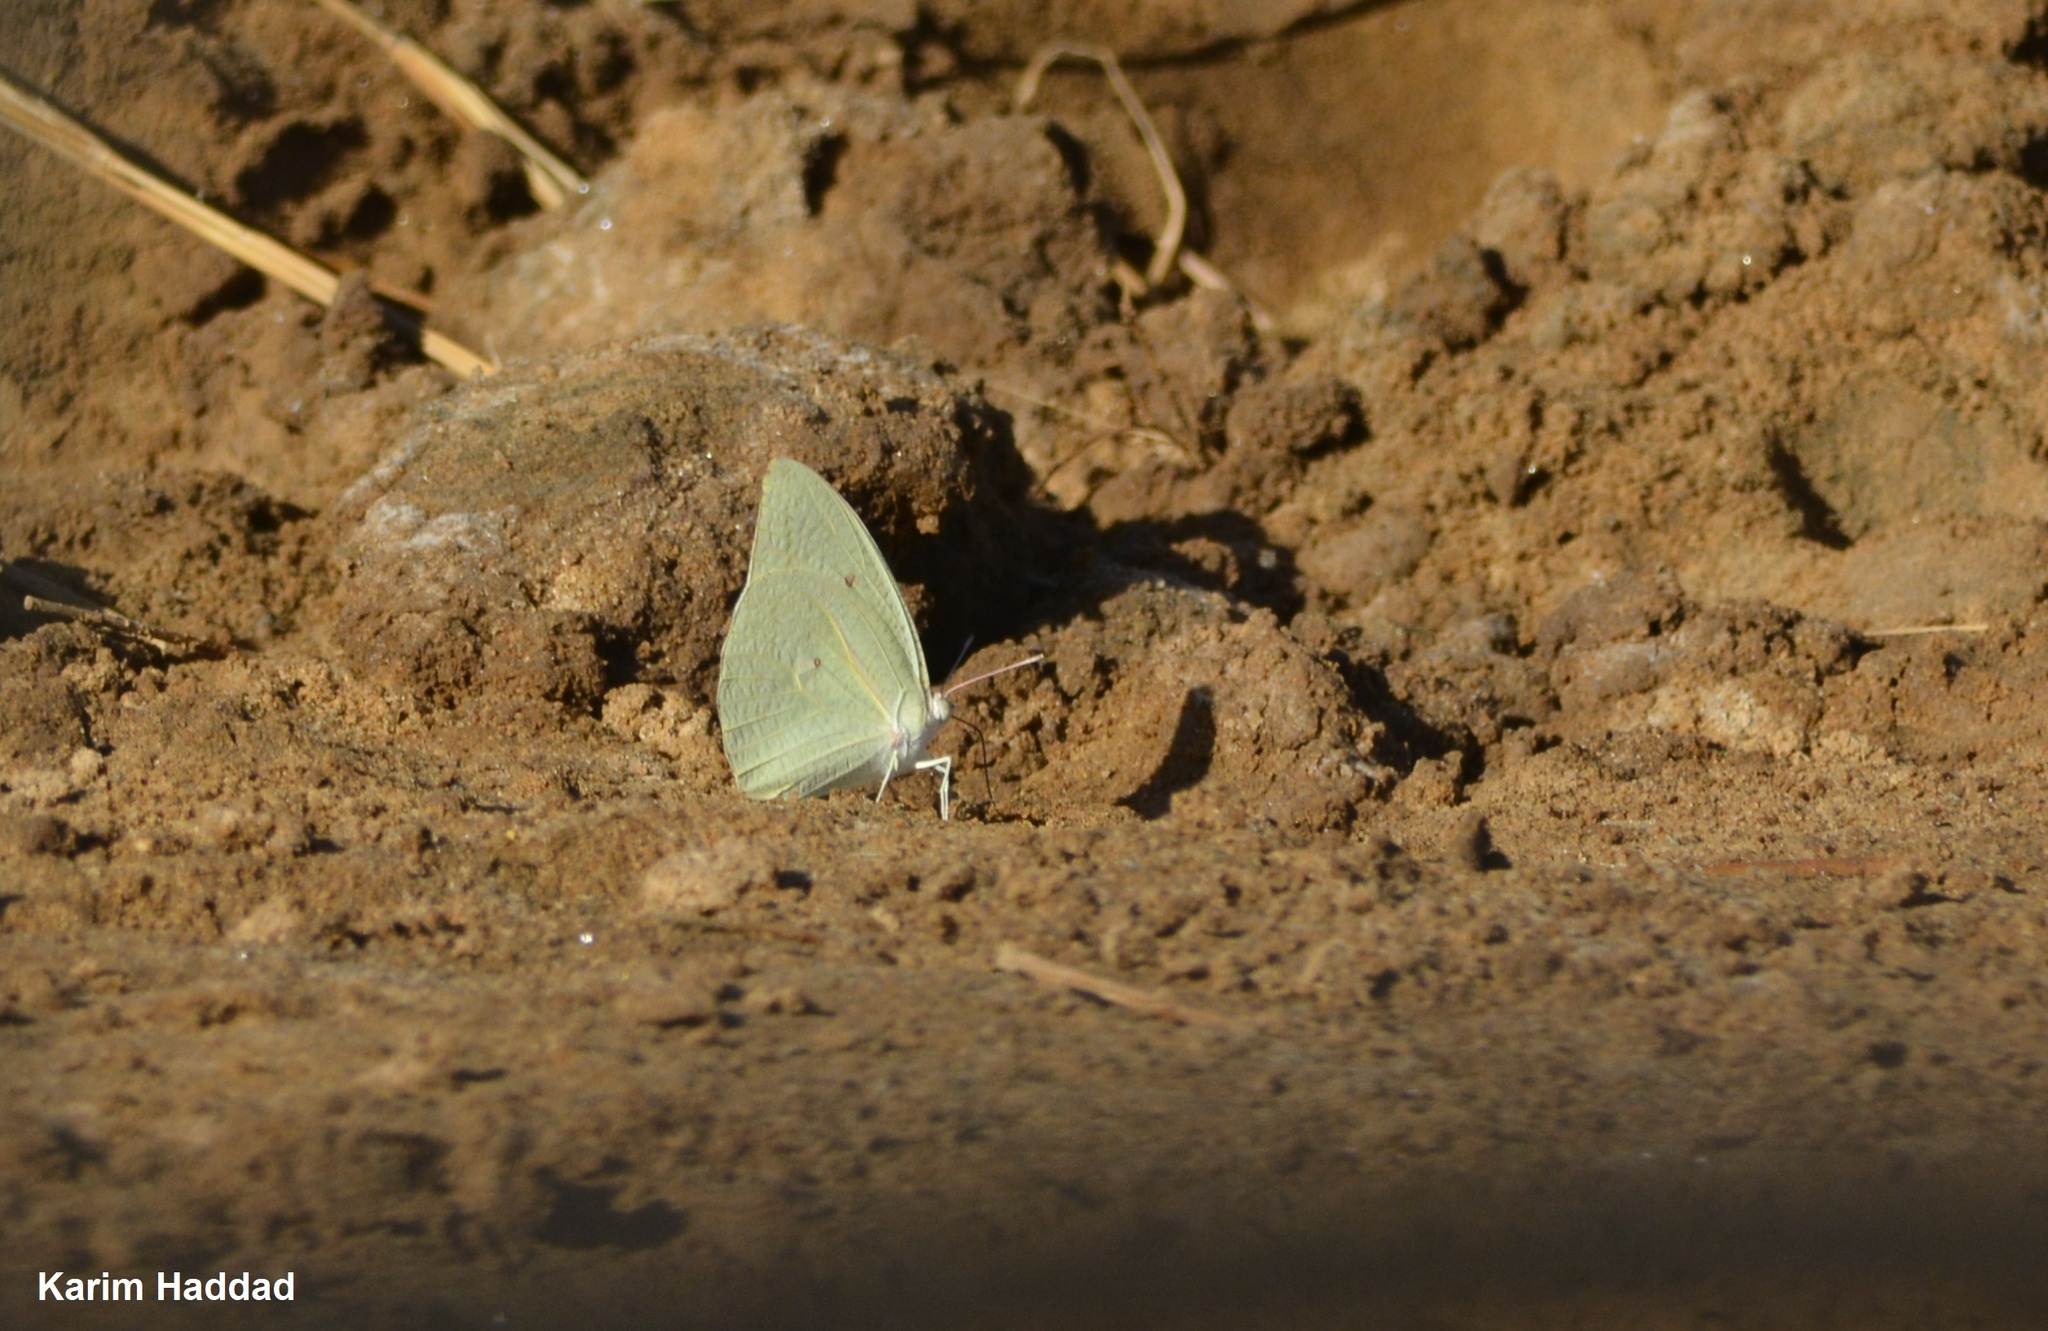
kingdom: Animalia
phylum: Arthropoda
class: Insecta
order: Lepidoptera
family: Pieridae
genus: Catopsilia
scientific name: Catopsilia florella
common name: African migrant
